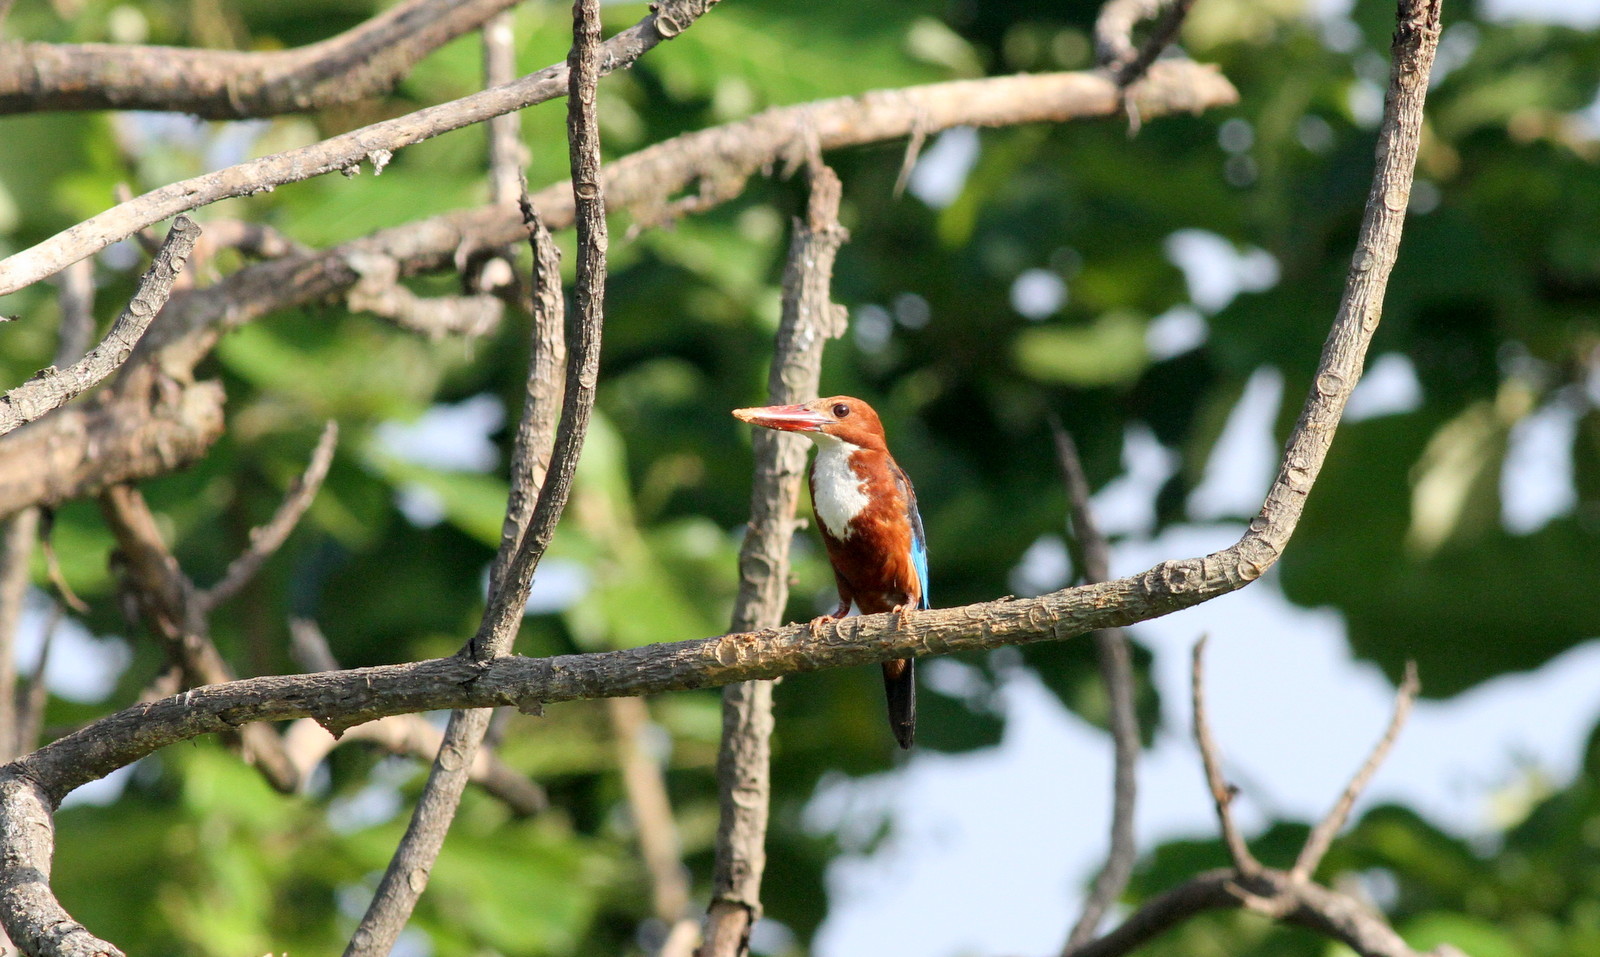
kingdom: Animalia
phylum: Chordata
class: Aves
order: Coraciiformes
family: Alcedinidae
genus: Halcyon
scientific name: Halcyon smyrnensis
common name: White-throated kingfisher
